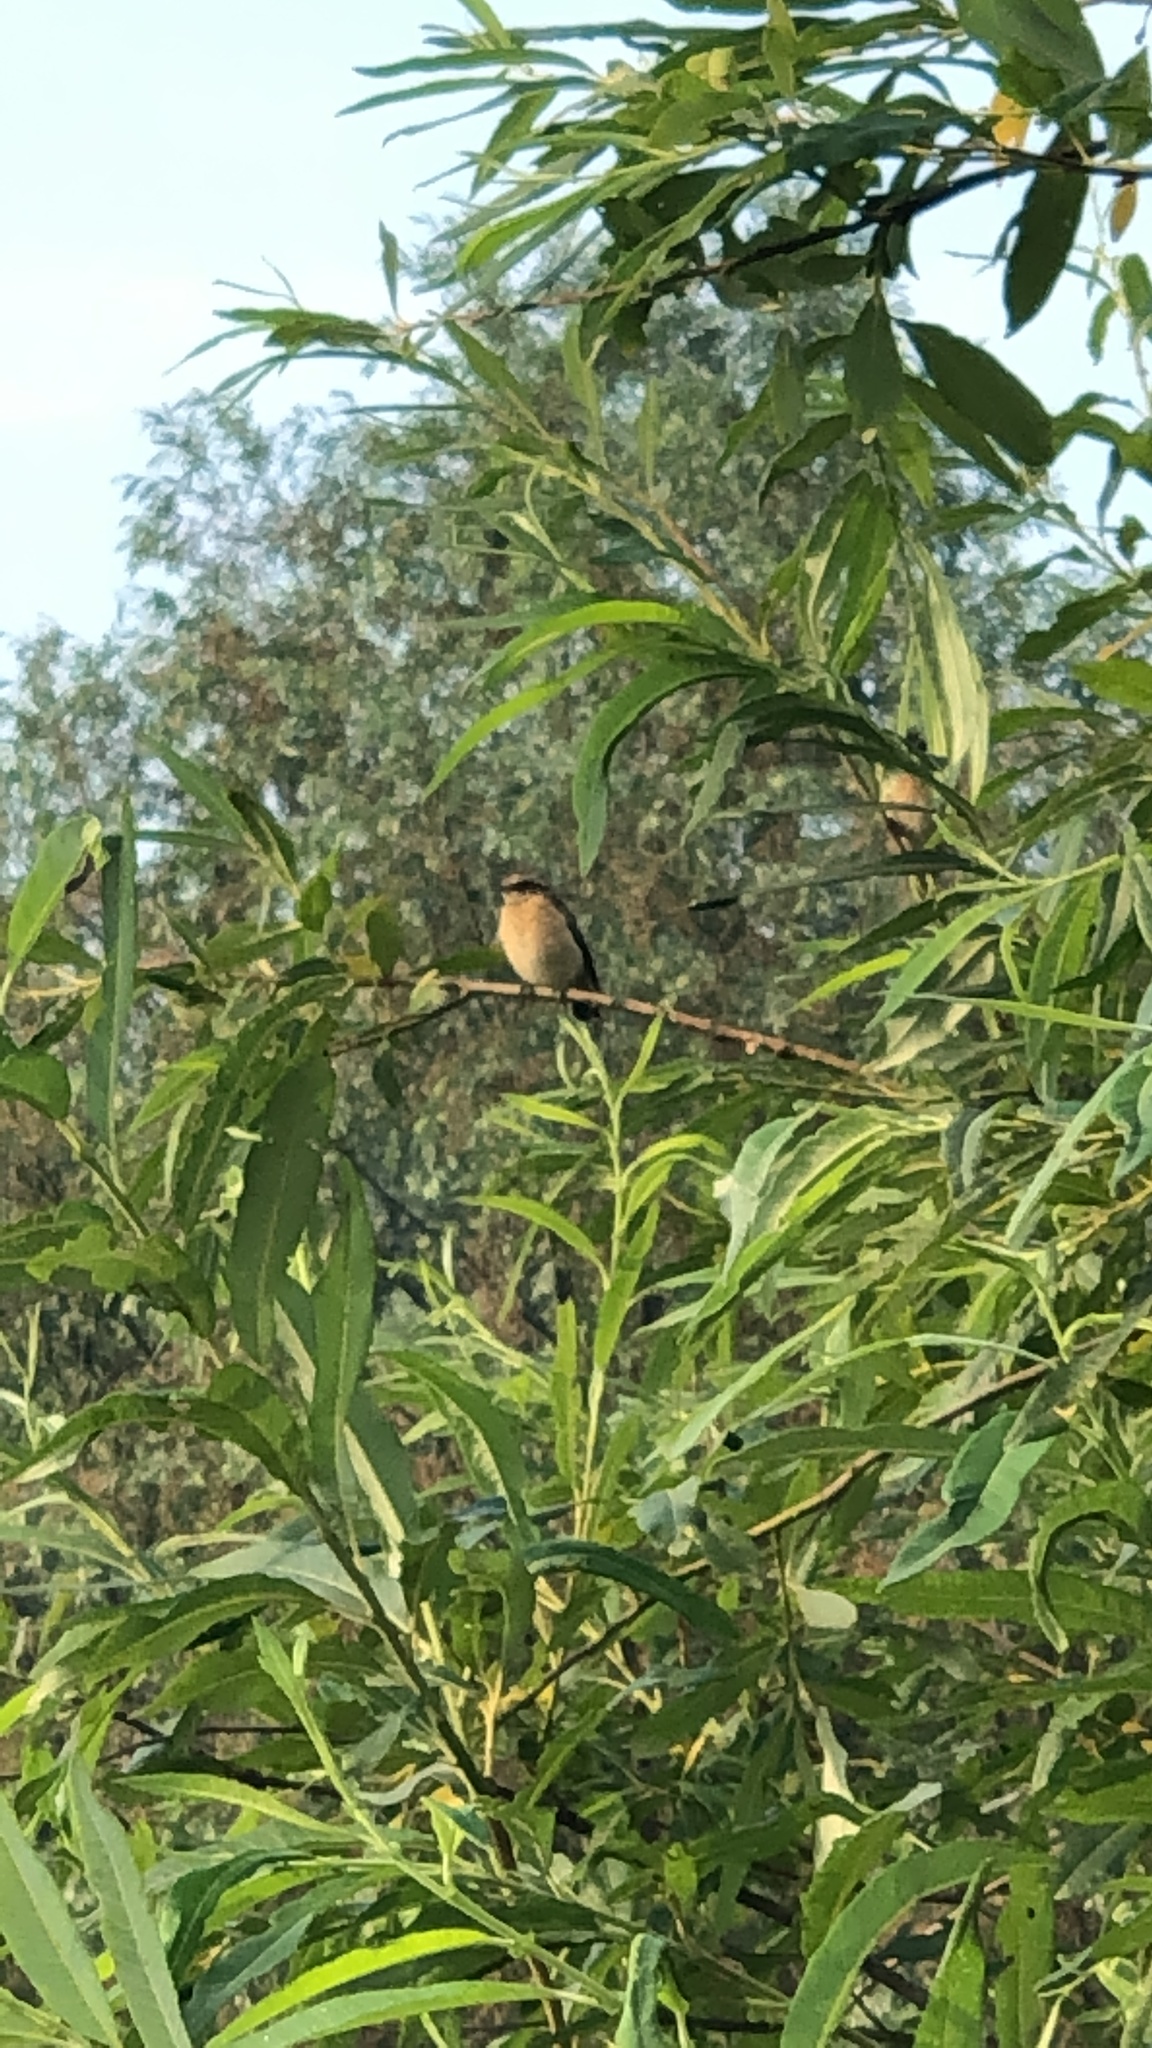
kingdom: Animalia
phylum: Chordata
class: Aves
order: Passeriformes
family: Muscicapidae
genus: Saxicola
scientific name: Saxicola rubetra
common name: Whinchat
